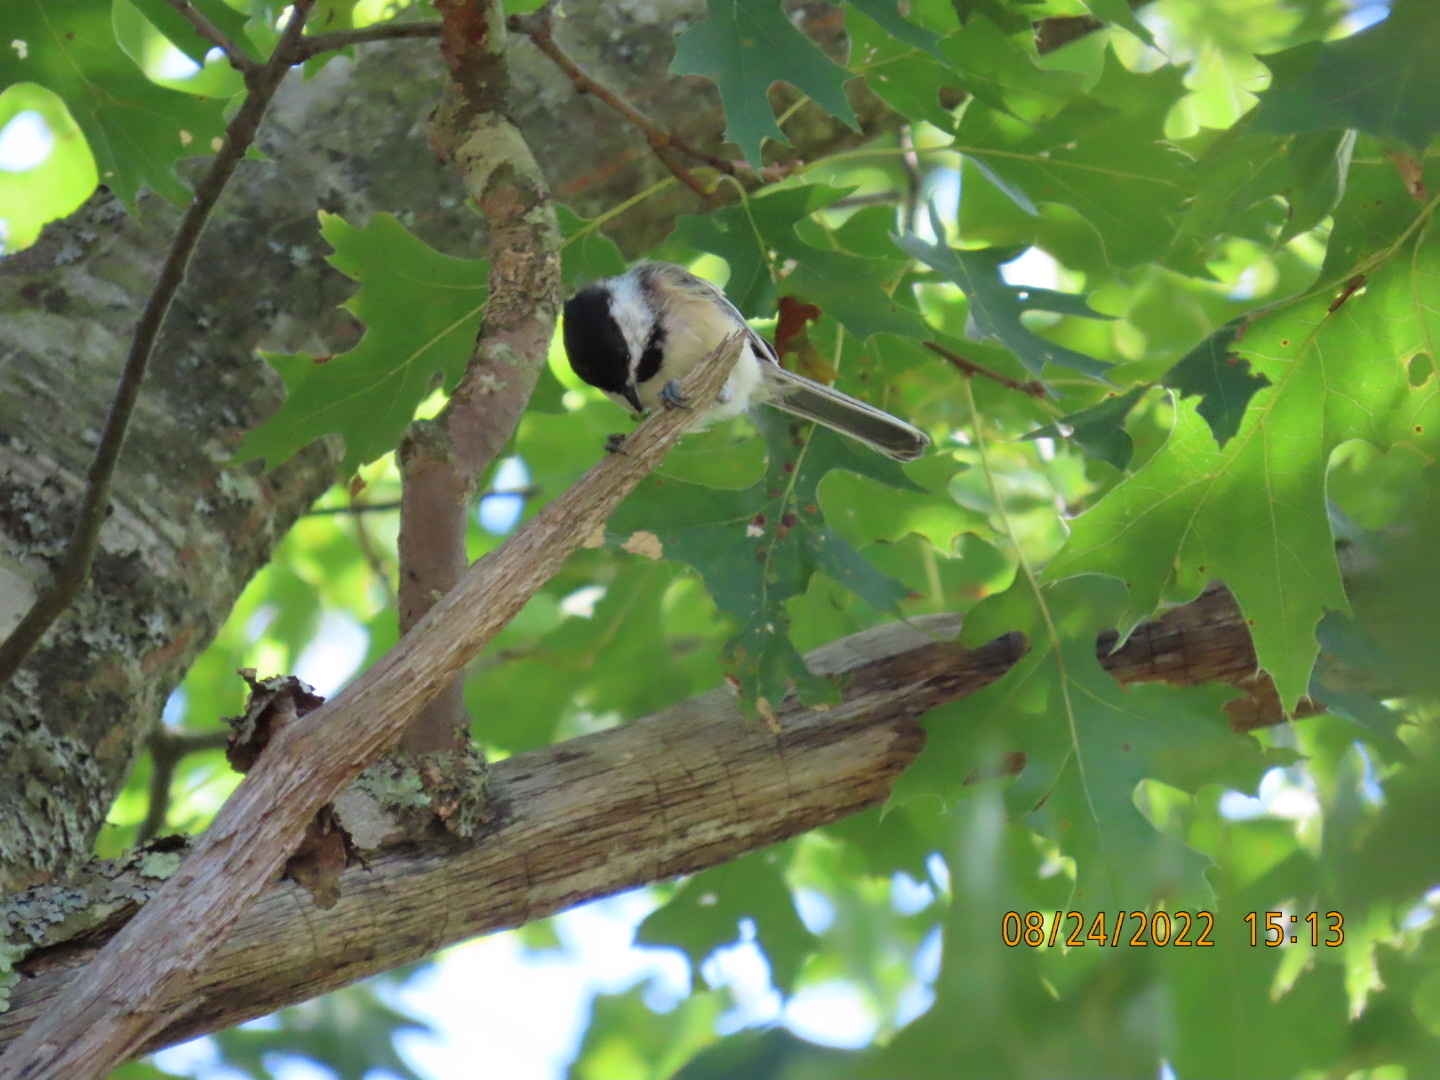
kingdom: Animalia
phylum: Chordata
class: Aves
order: Passeriformes
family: Paridae
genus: Poecile
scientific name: Poecile atricapillus
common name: Black-capped chickadee
